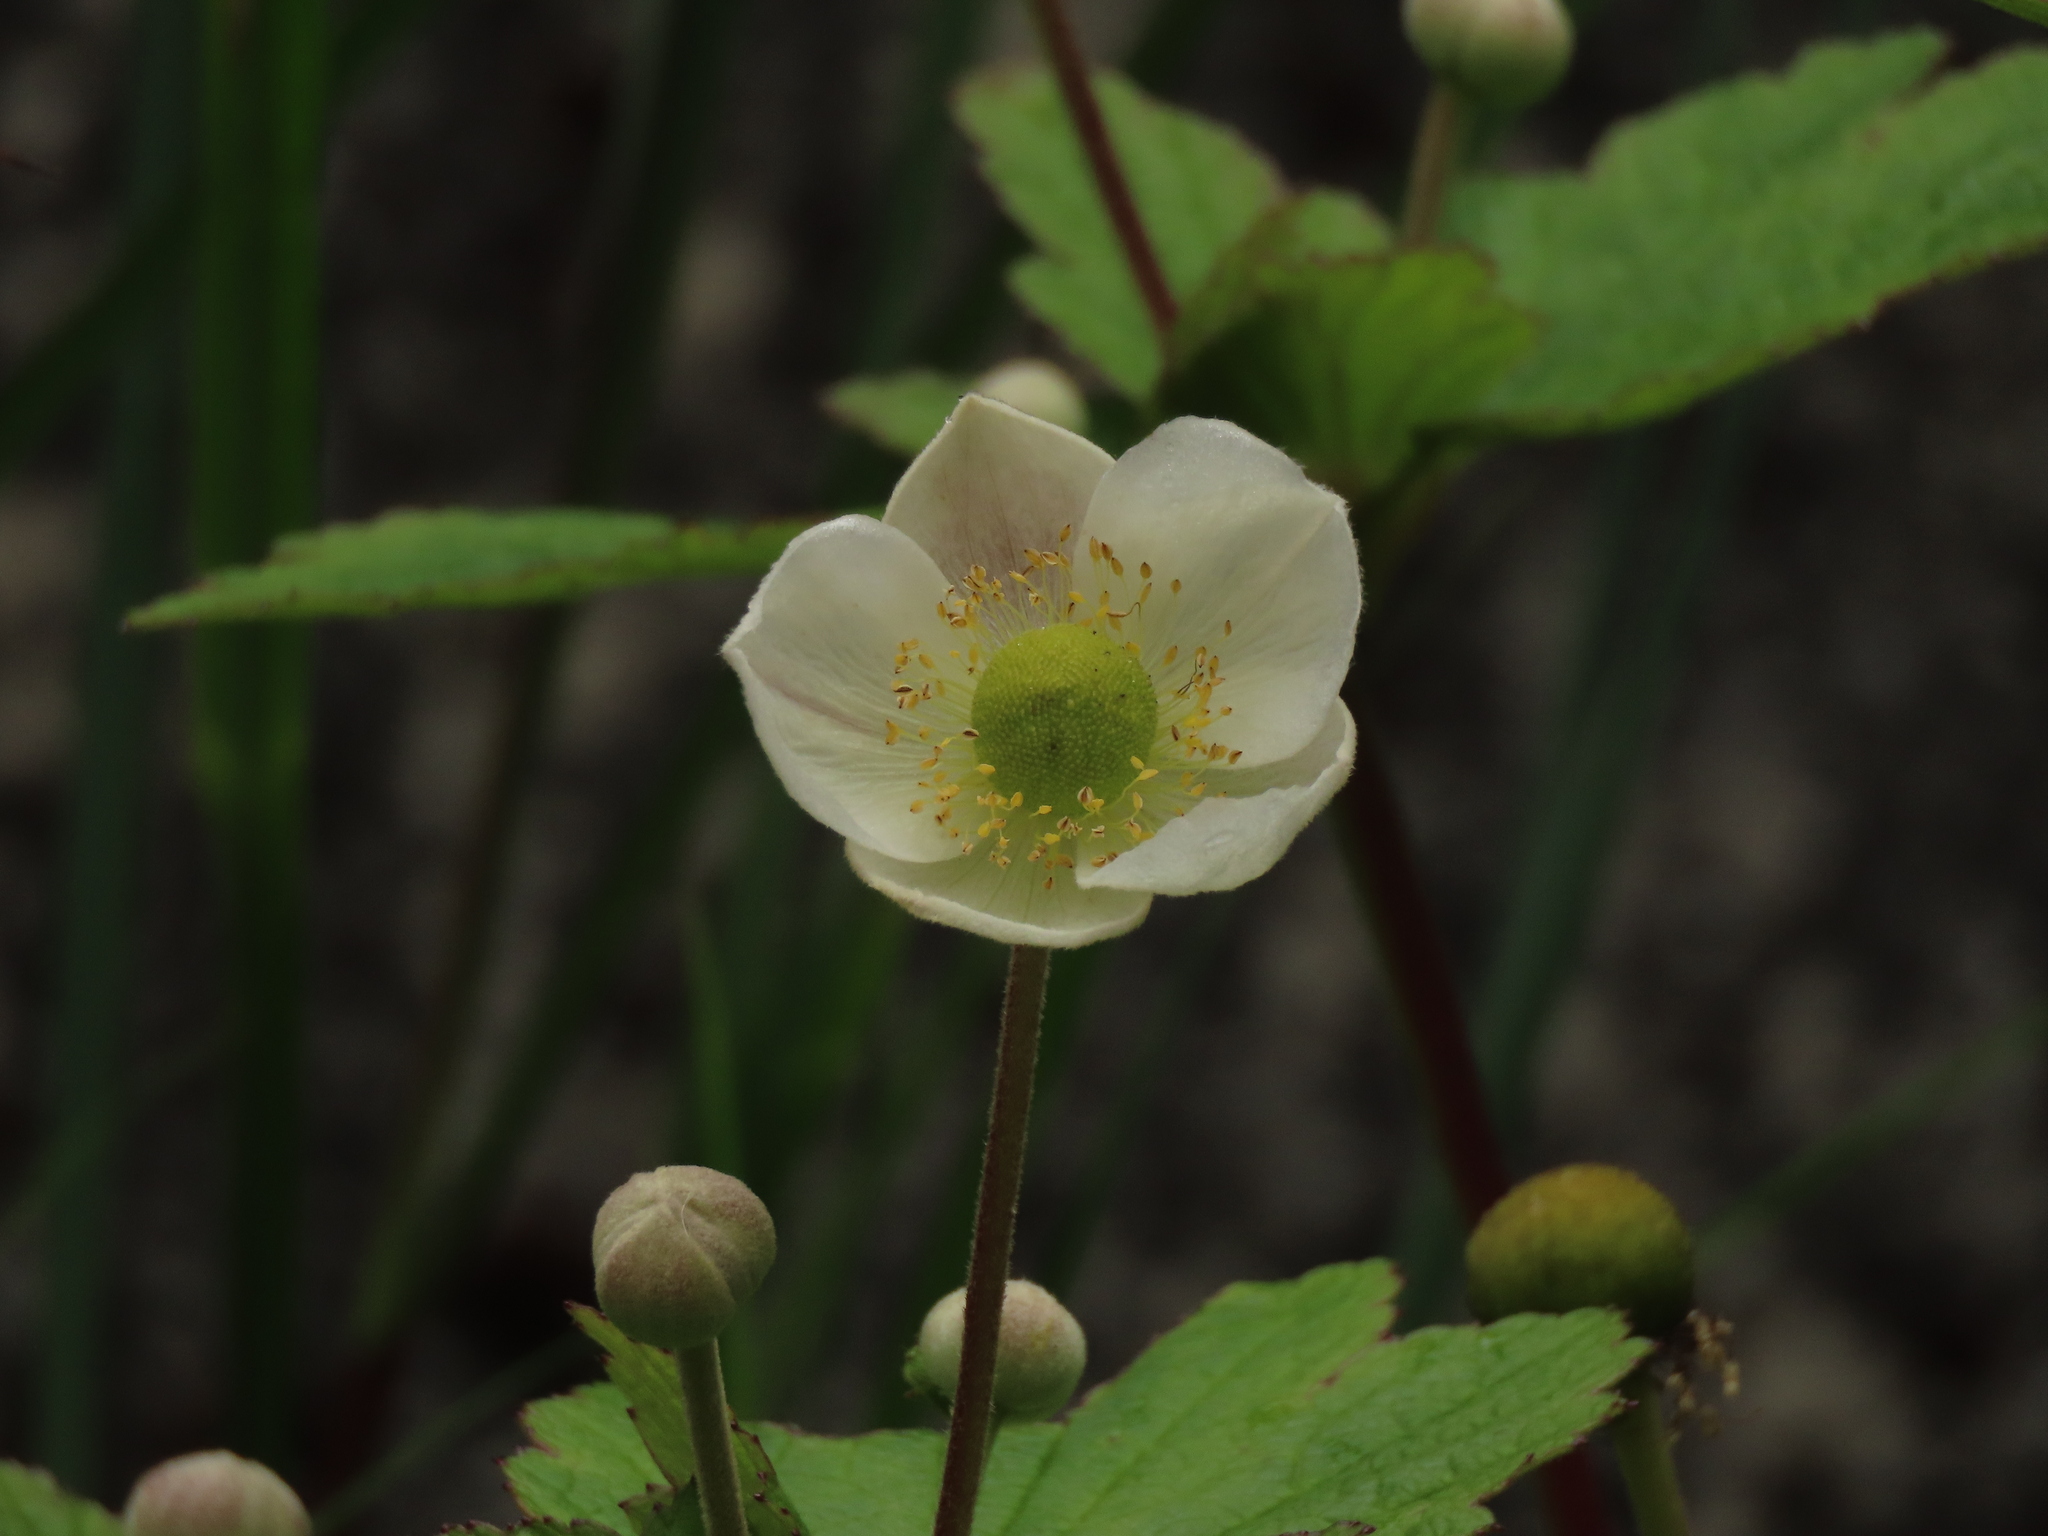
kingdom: Plantae
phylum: Tracheophyta
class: Magnoliopsida
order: Ranunculales
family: Ranunculaceae
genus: Eriocapitella
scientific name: Eriocapitella vitifolia
